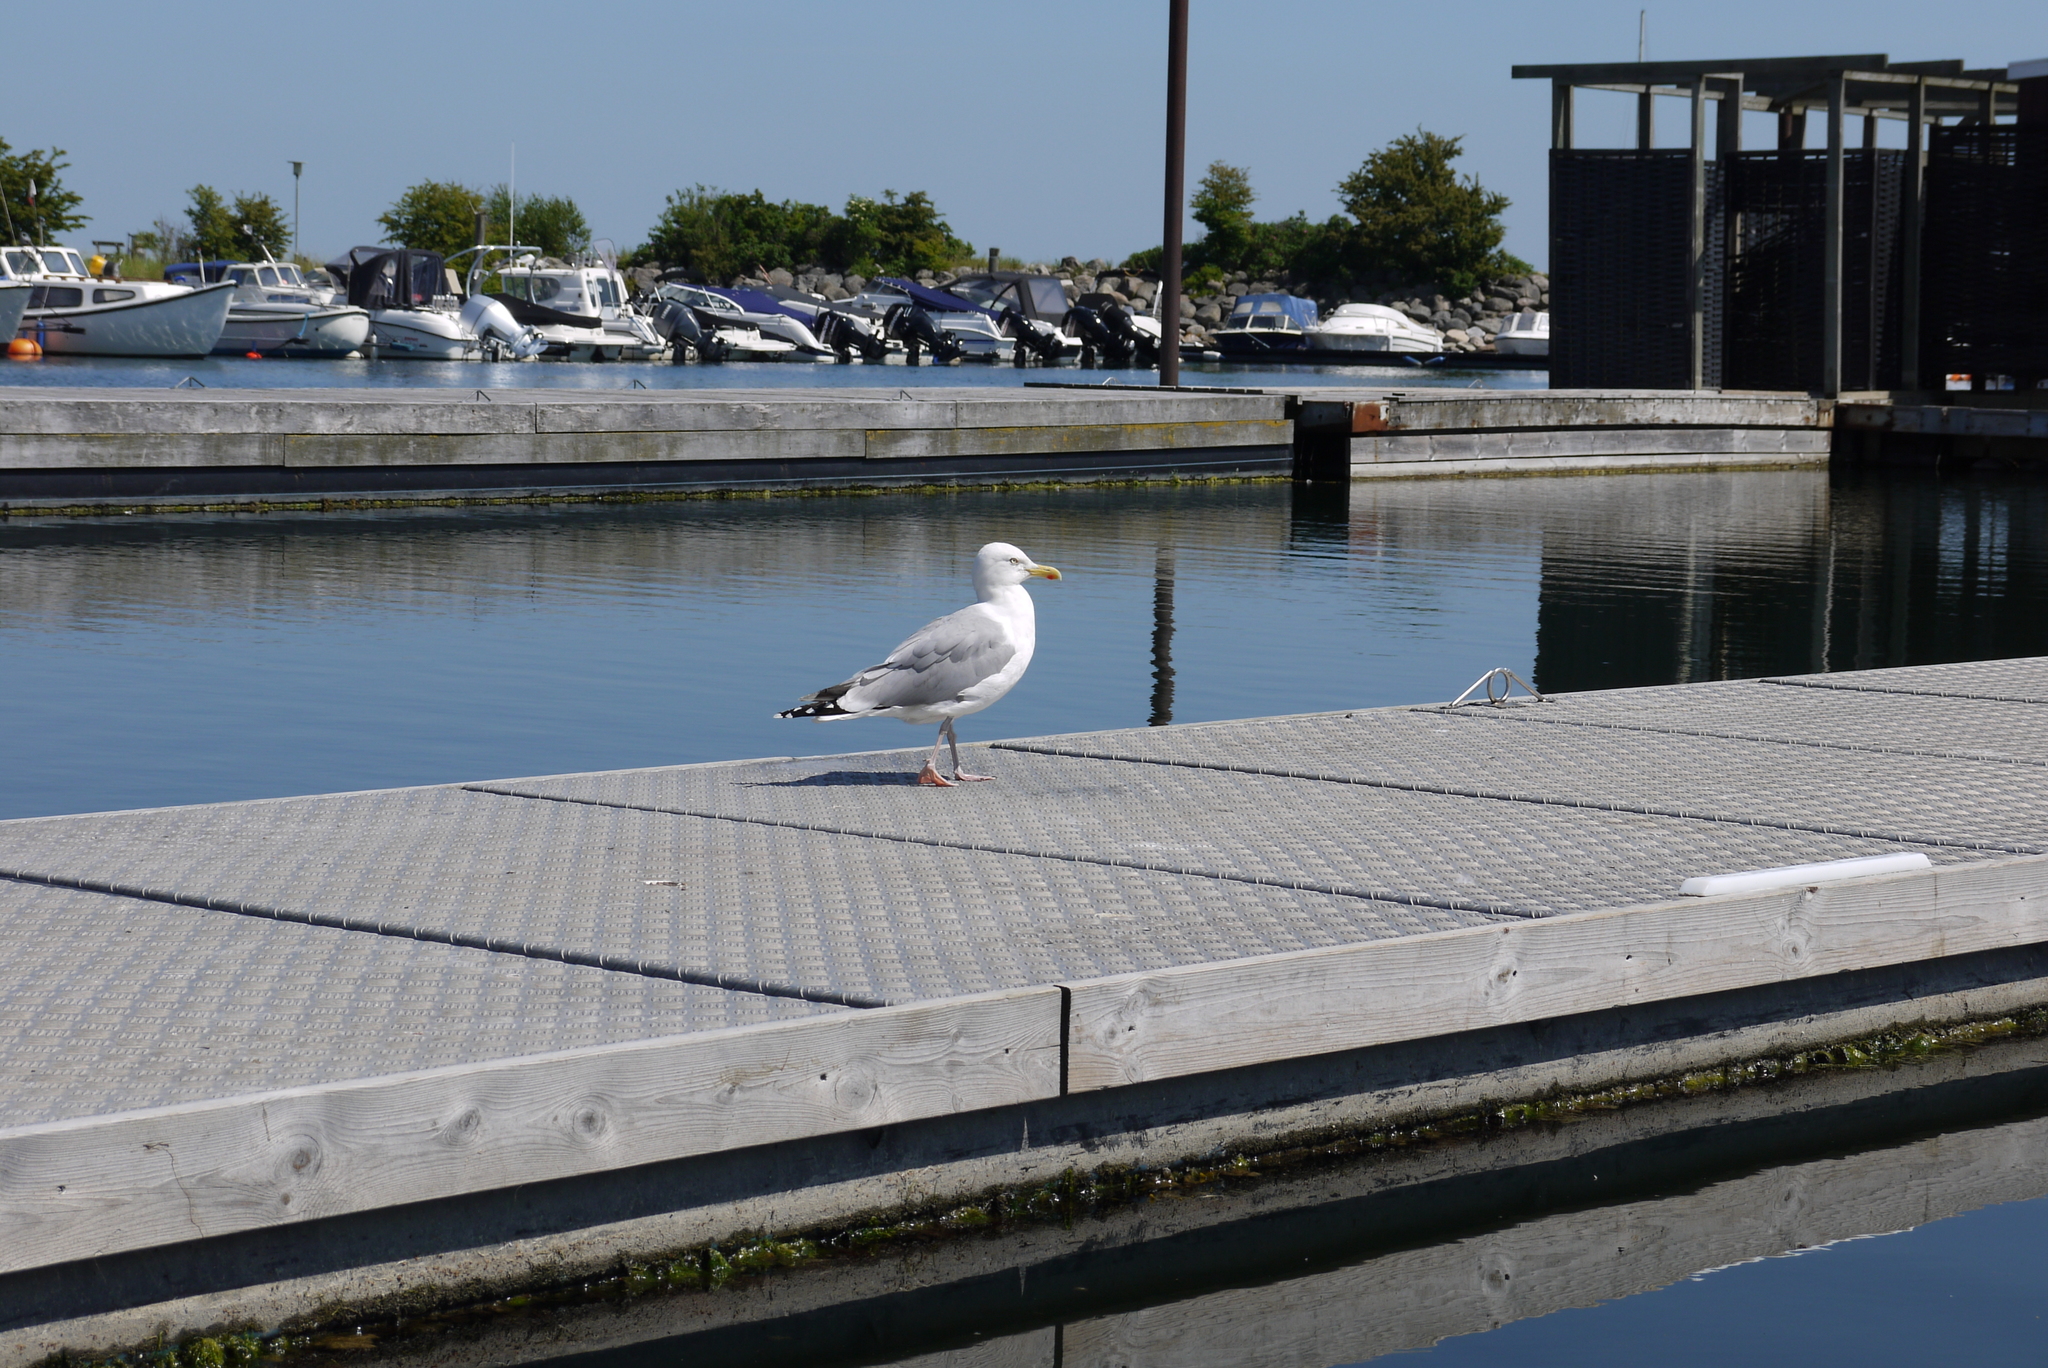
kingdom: Animalia
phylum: Chordata
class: Aves
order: Charadriiformes
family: Laridae
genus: Larus
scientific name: Larus argentatus
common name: Herring gull
